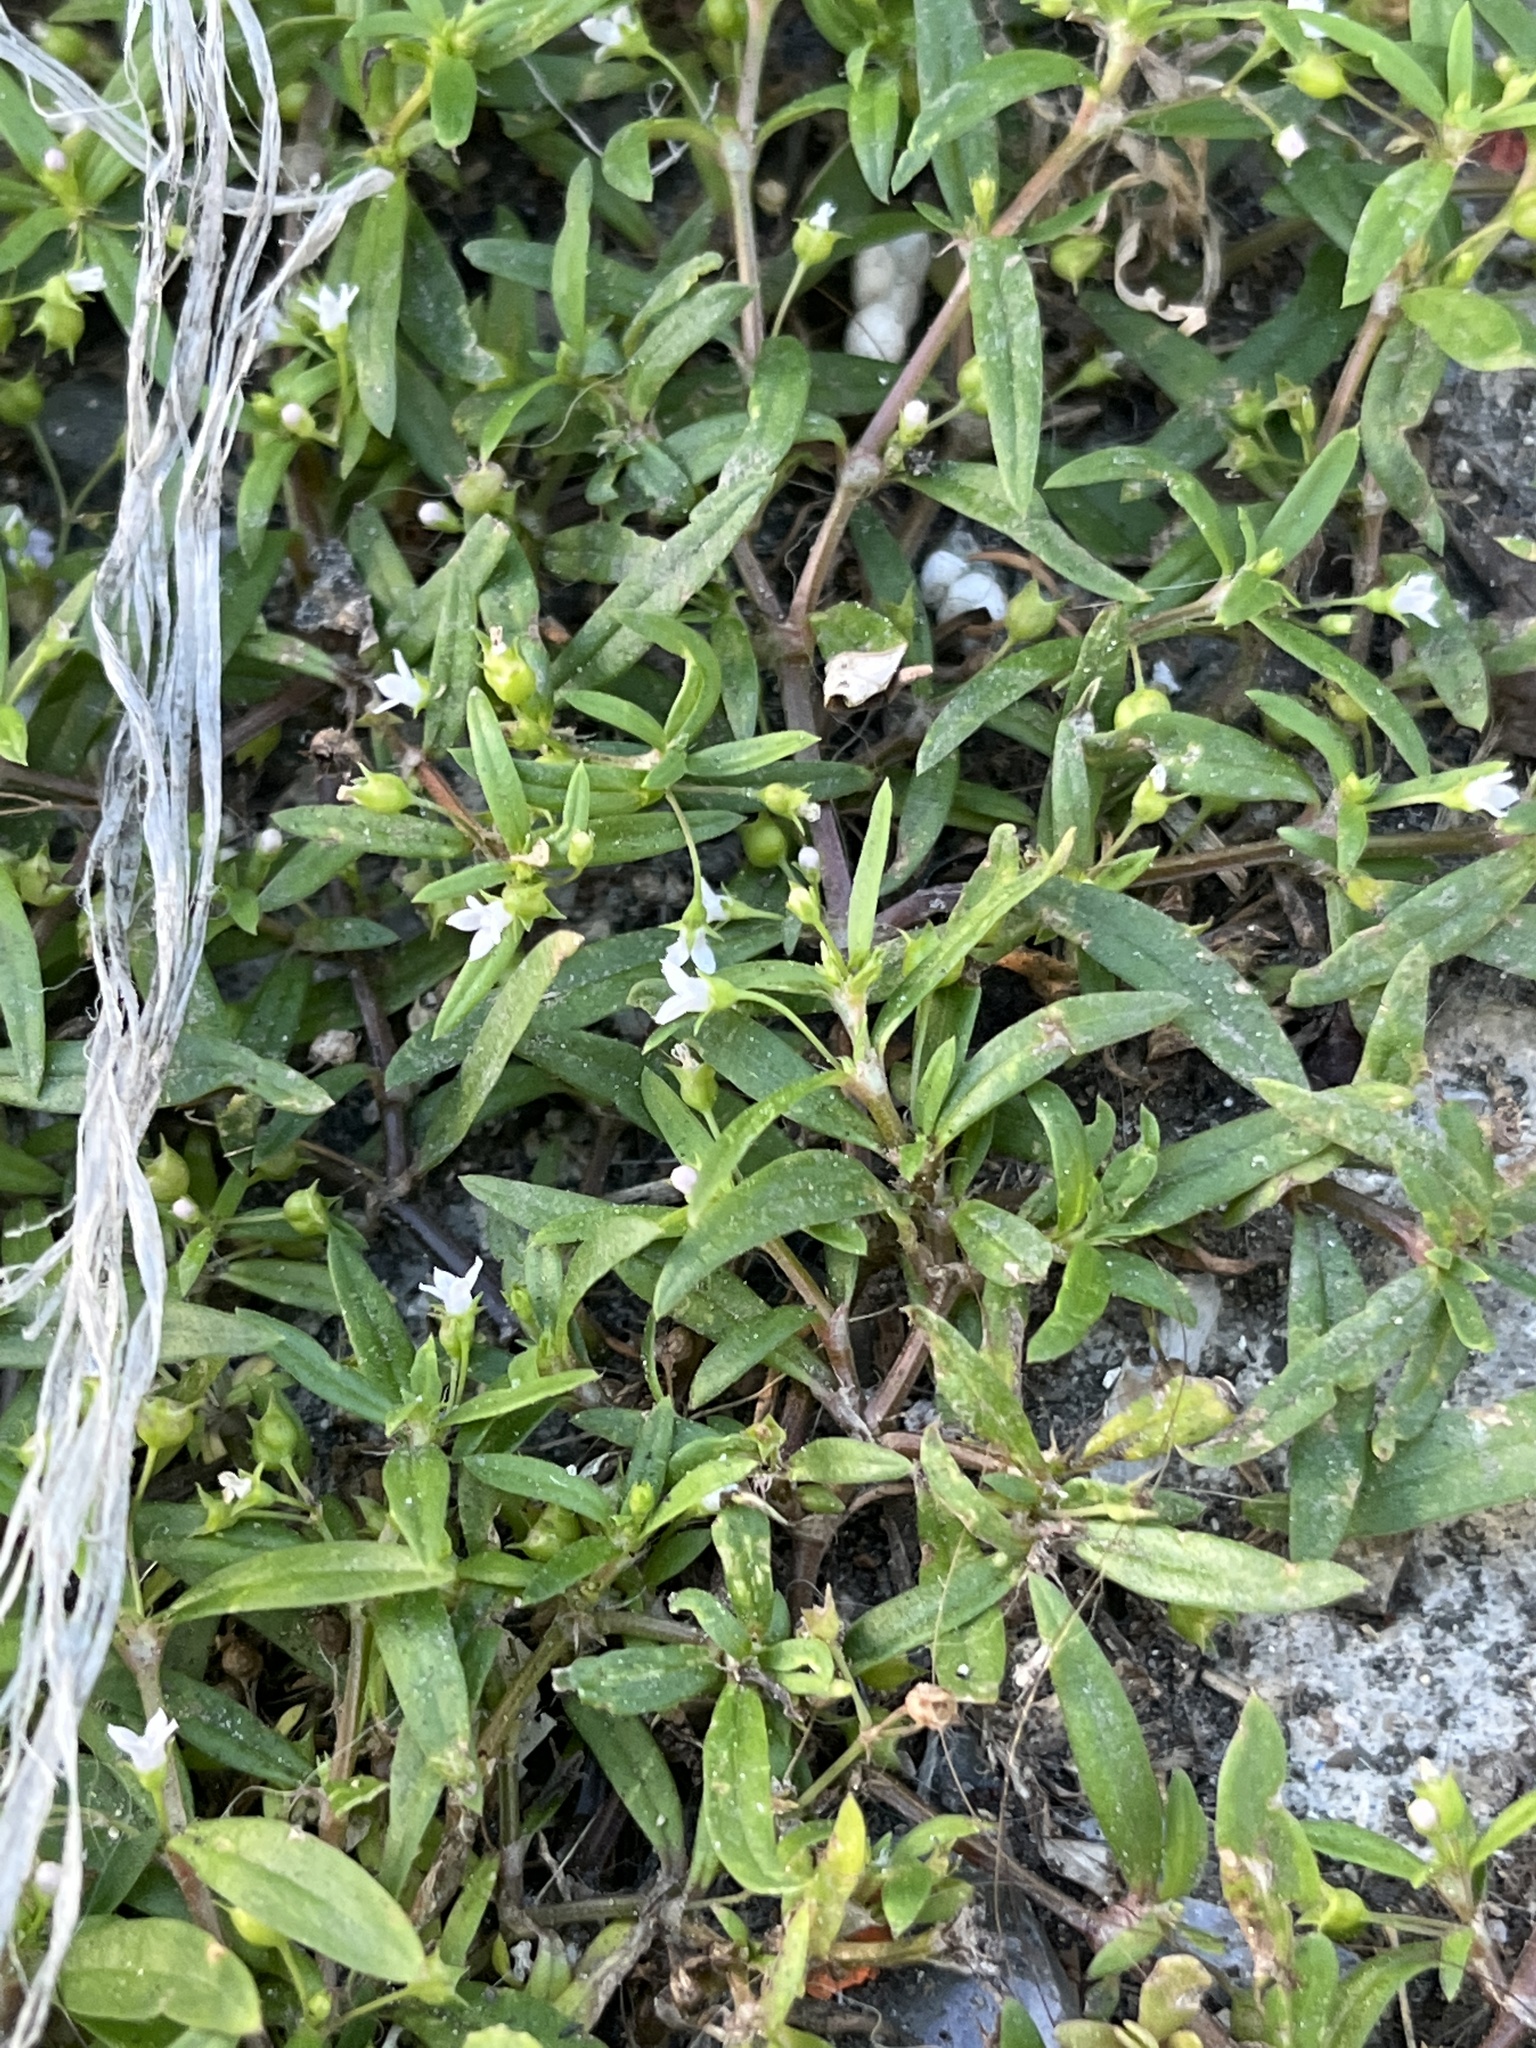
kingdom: Plantae
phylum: Tracheophyta
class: Magnoliopsida
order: Gentianales
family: Rubiaceae
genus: Oldenlandia
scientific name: Oldenlandia corymbosa
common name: Flat-top mille graines
